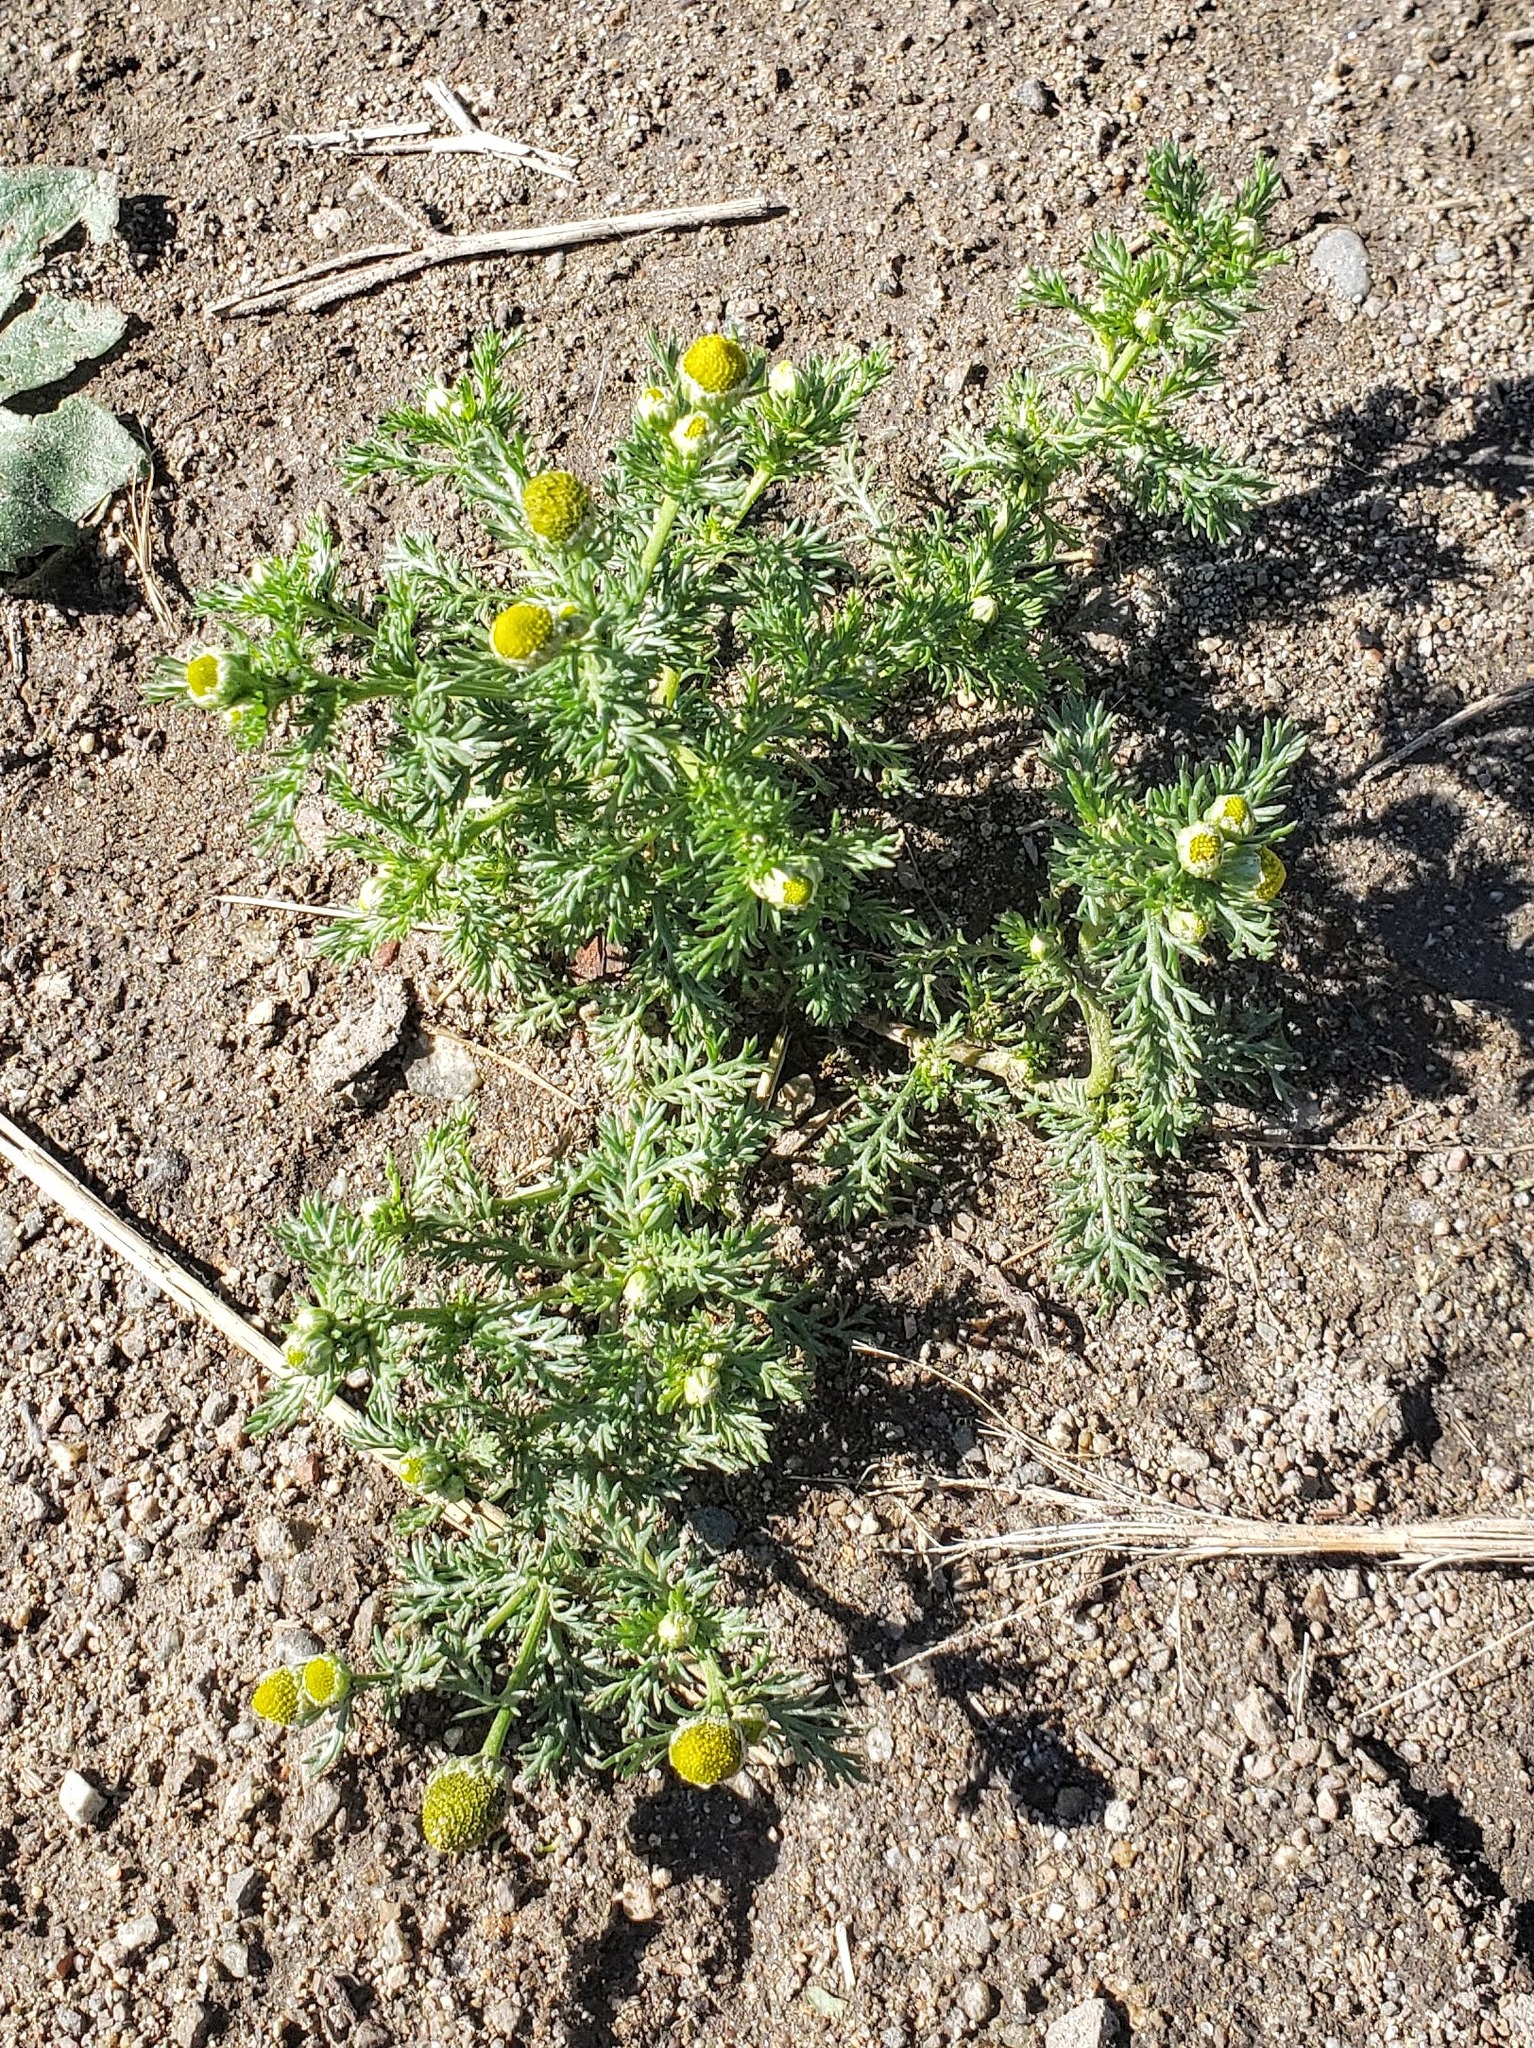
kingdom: Plantae
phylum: Tracheophyta
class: Magnoliopsida
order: Asterales
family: Asteraceae
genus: Matricaria
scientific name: Matricaria discoidea
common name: Disc mayweed
